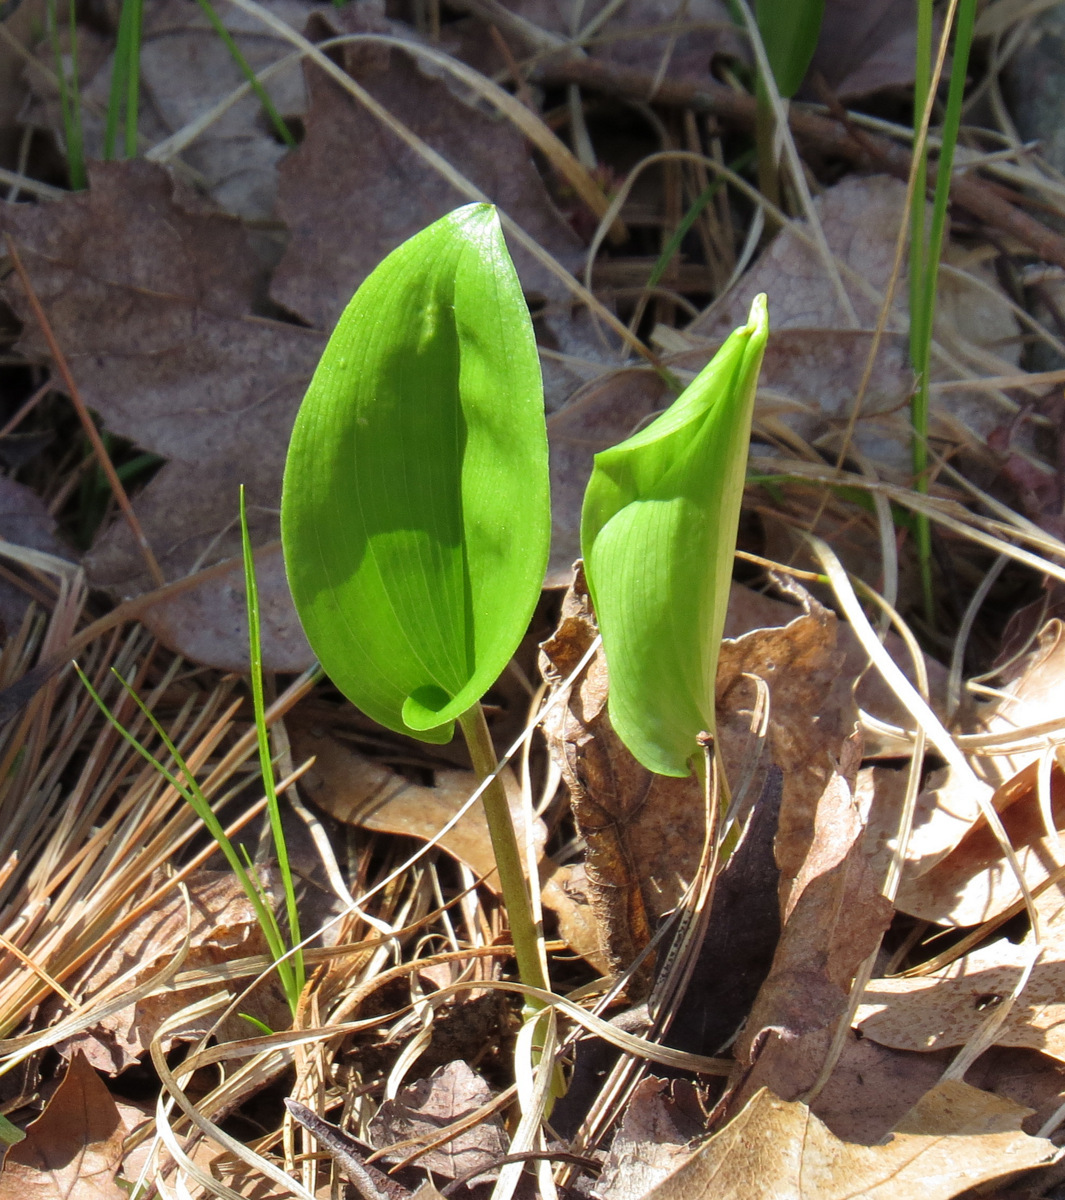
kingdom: Plantae
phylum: Tracheophyta
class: Liliopsida
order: Asparagales
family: Asparagaceae
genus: Maianthemum
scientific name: Maianthemum canadense
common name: False lily-of-the-valley
